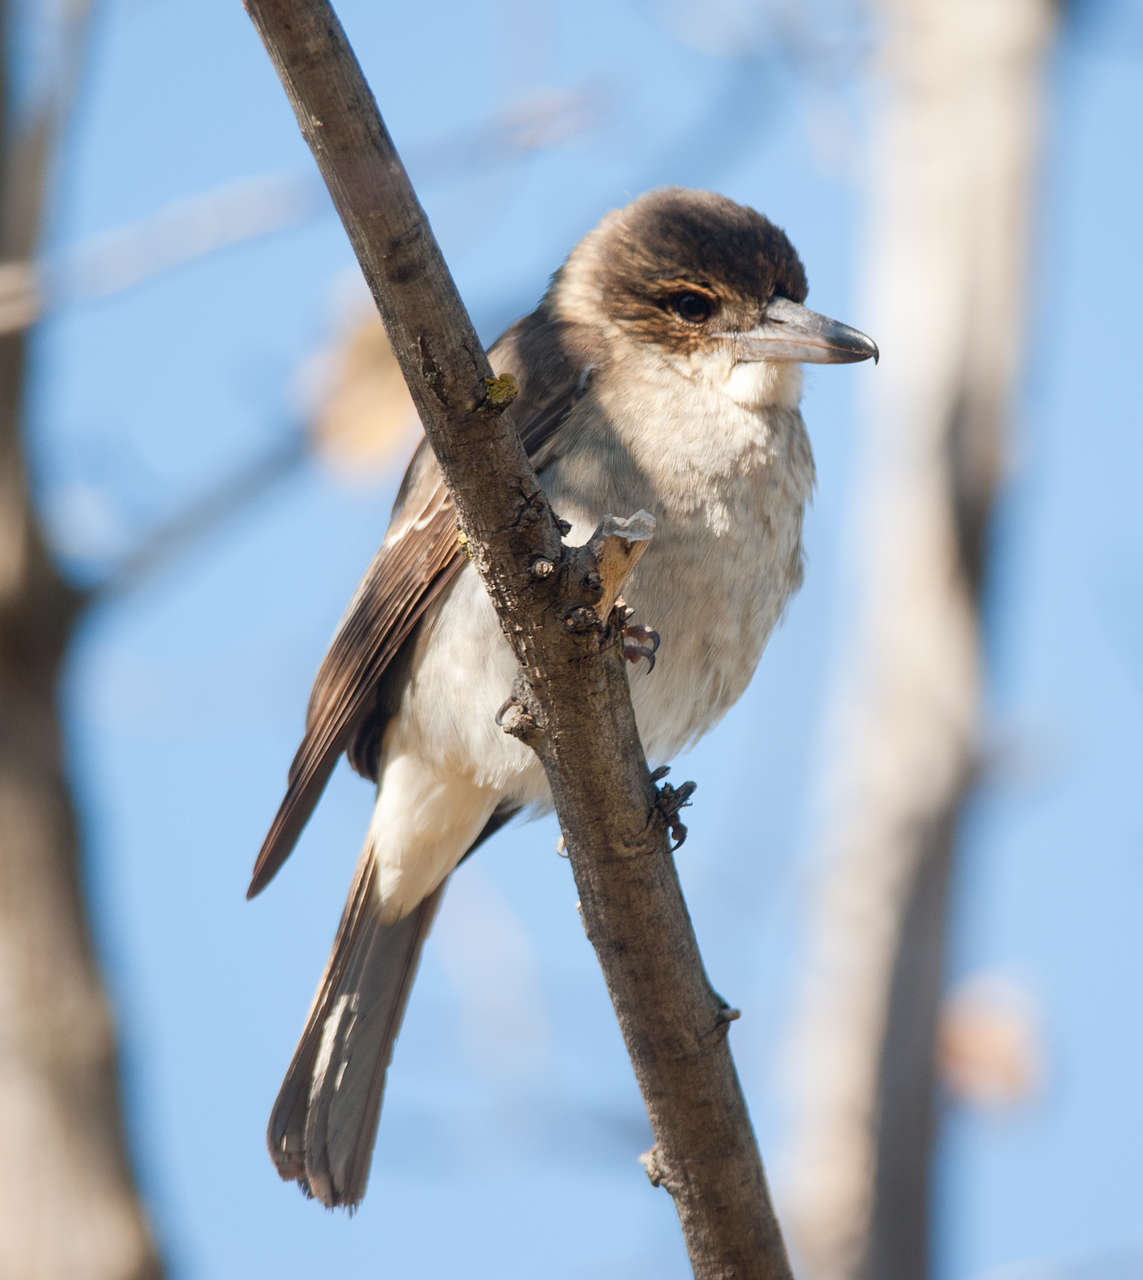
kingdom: Animalia
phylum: Chordata
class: Aves
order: Passeriformes
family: Cracticidae
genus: Cracticus
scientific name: Cracticus torquatus
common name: Grey butcherbird
